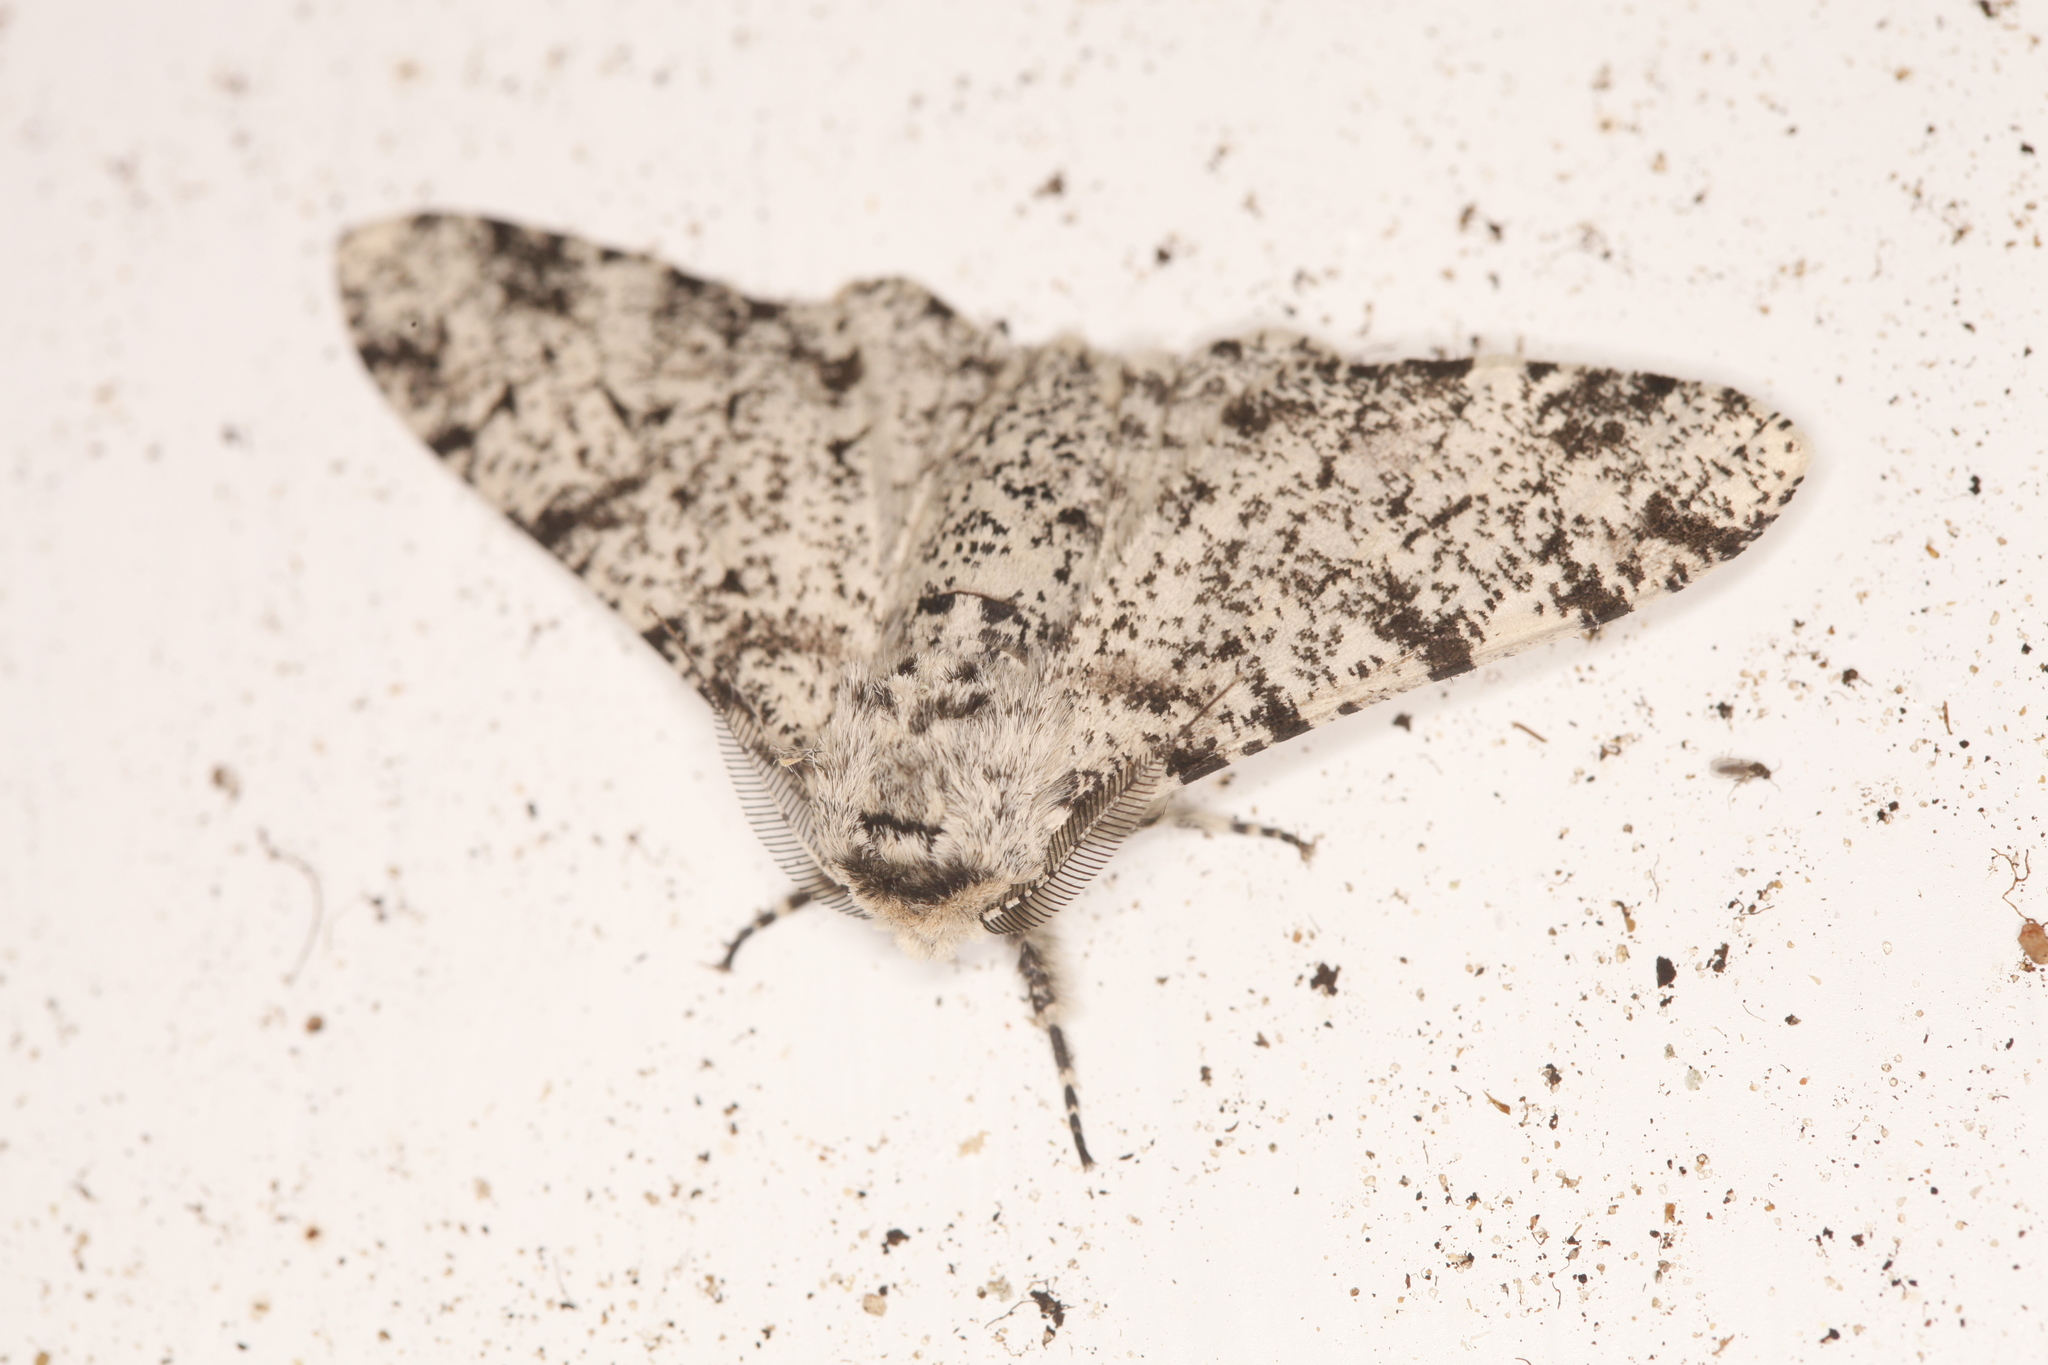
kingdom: Animalia
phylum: Arthropoda
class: Insecta
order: Lepidoptera
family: Geometridae
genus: Biston
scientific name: Biston betularia
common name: Peppered moth
